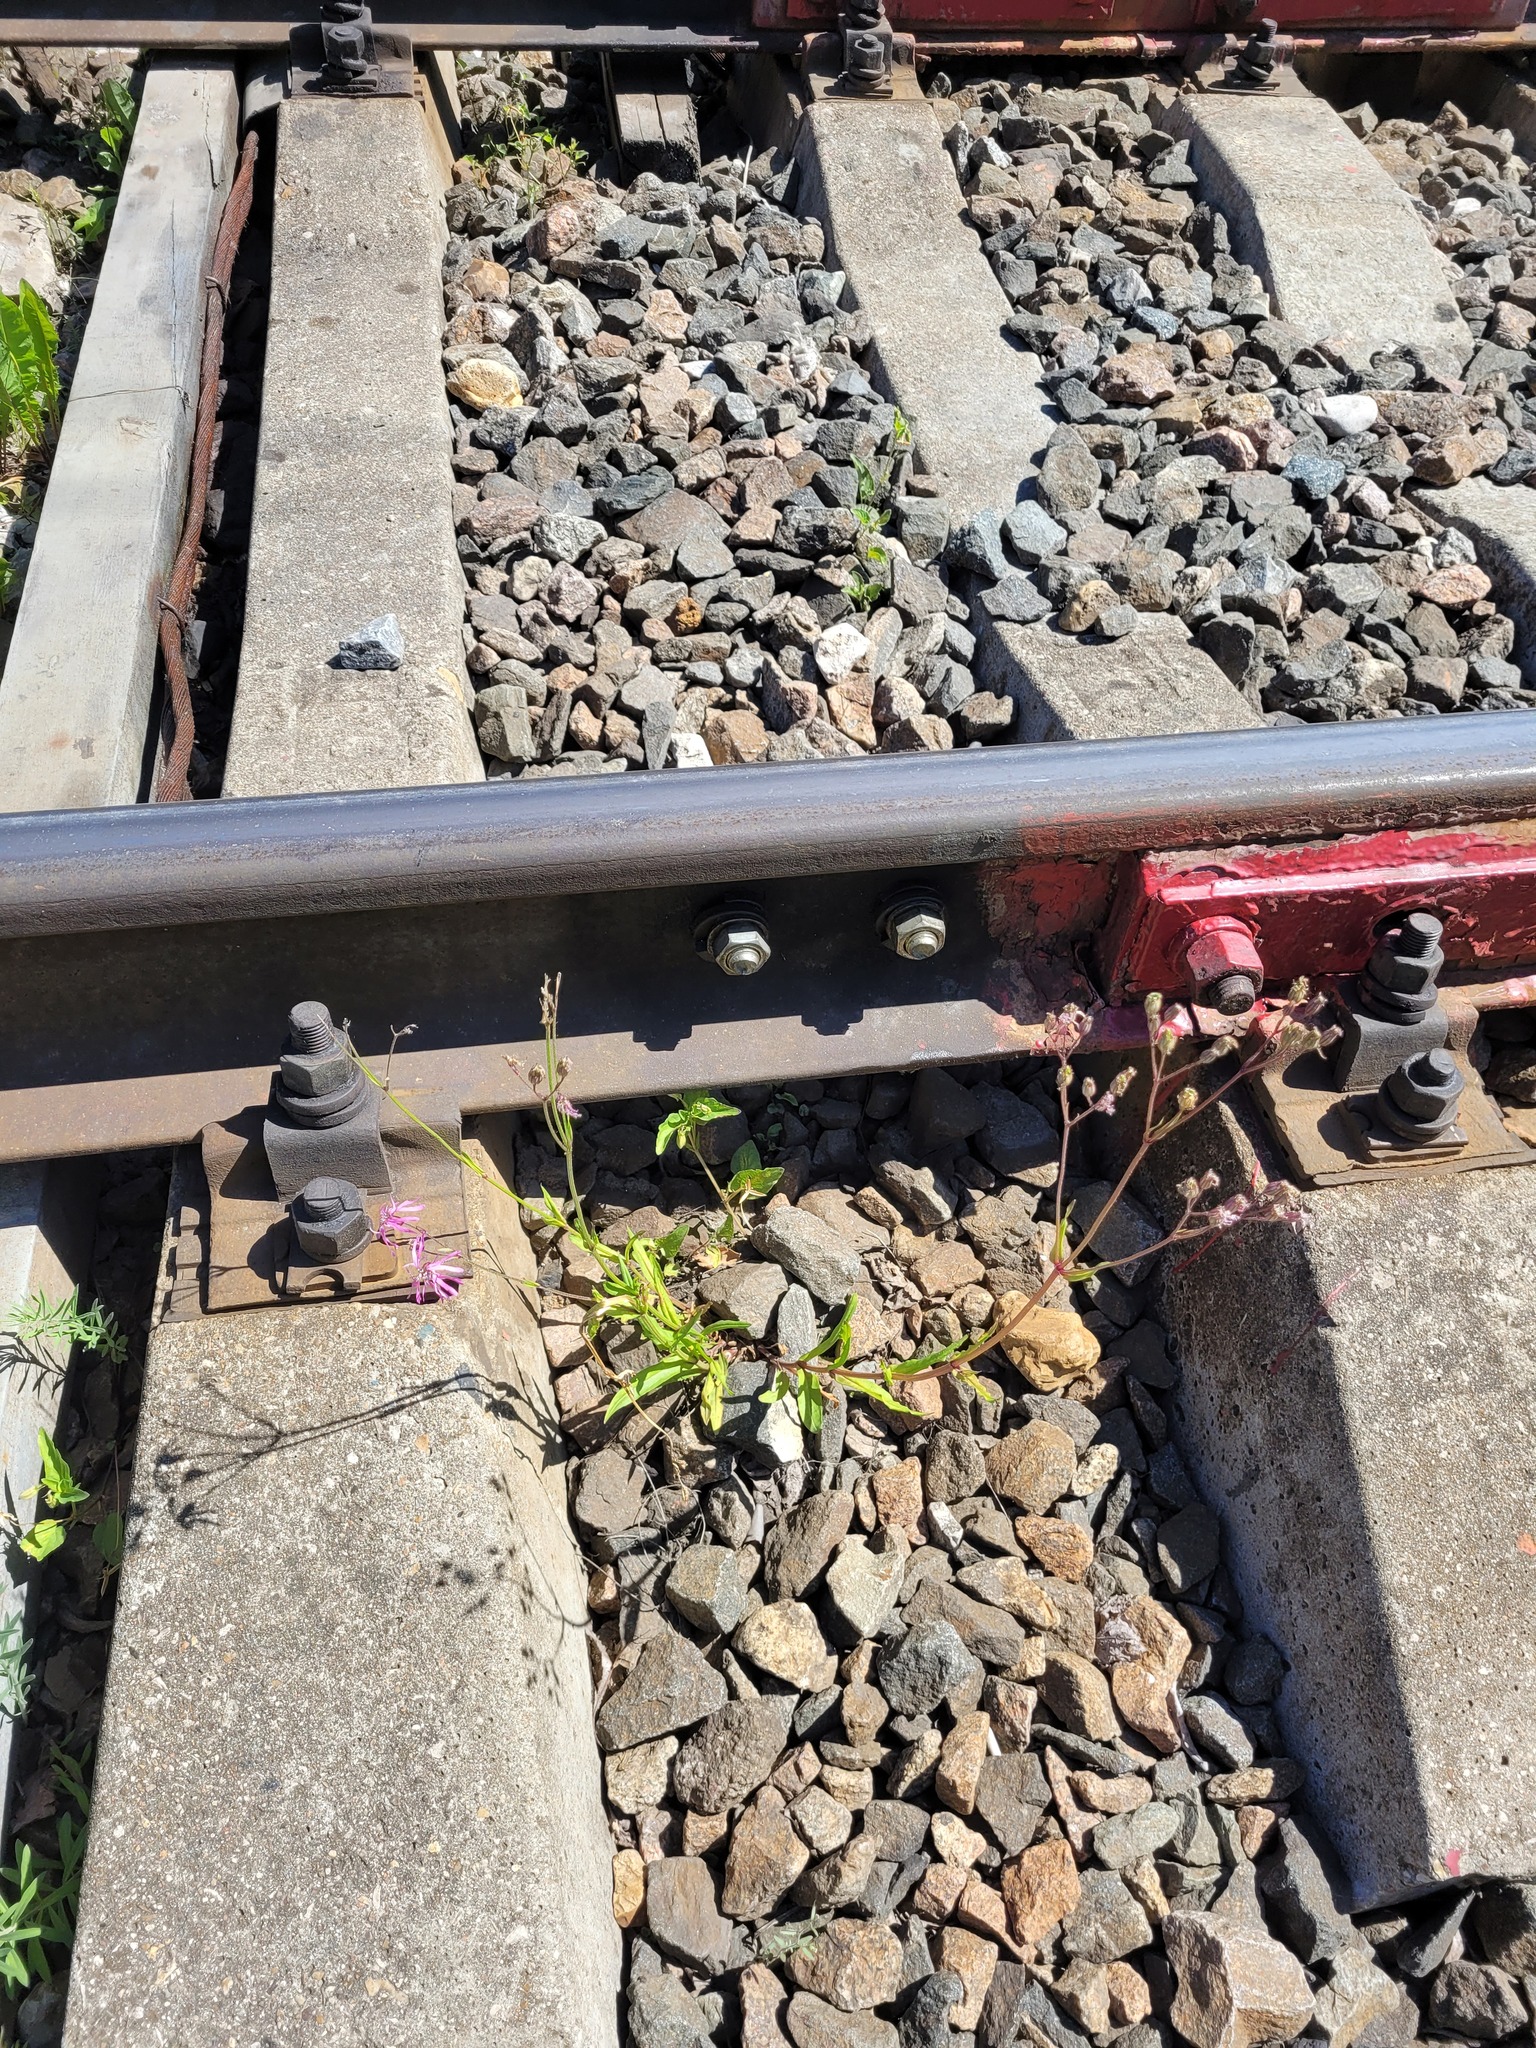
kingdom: Plantae
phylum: Tracheophyta
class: Magnoliopsida
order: Caryophyllales
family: Caryophyllaceae
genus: Silene
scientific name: Silene flos-cuculi
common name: Ragged-robin
